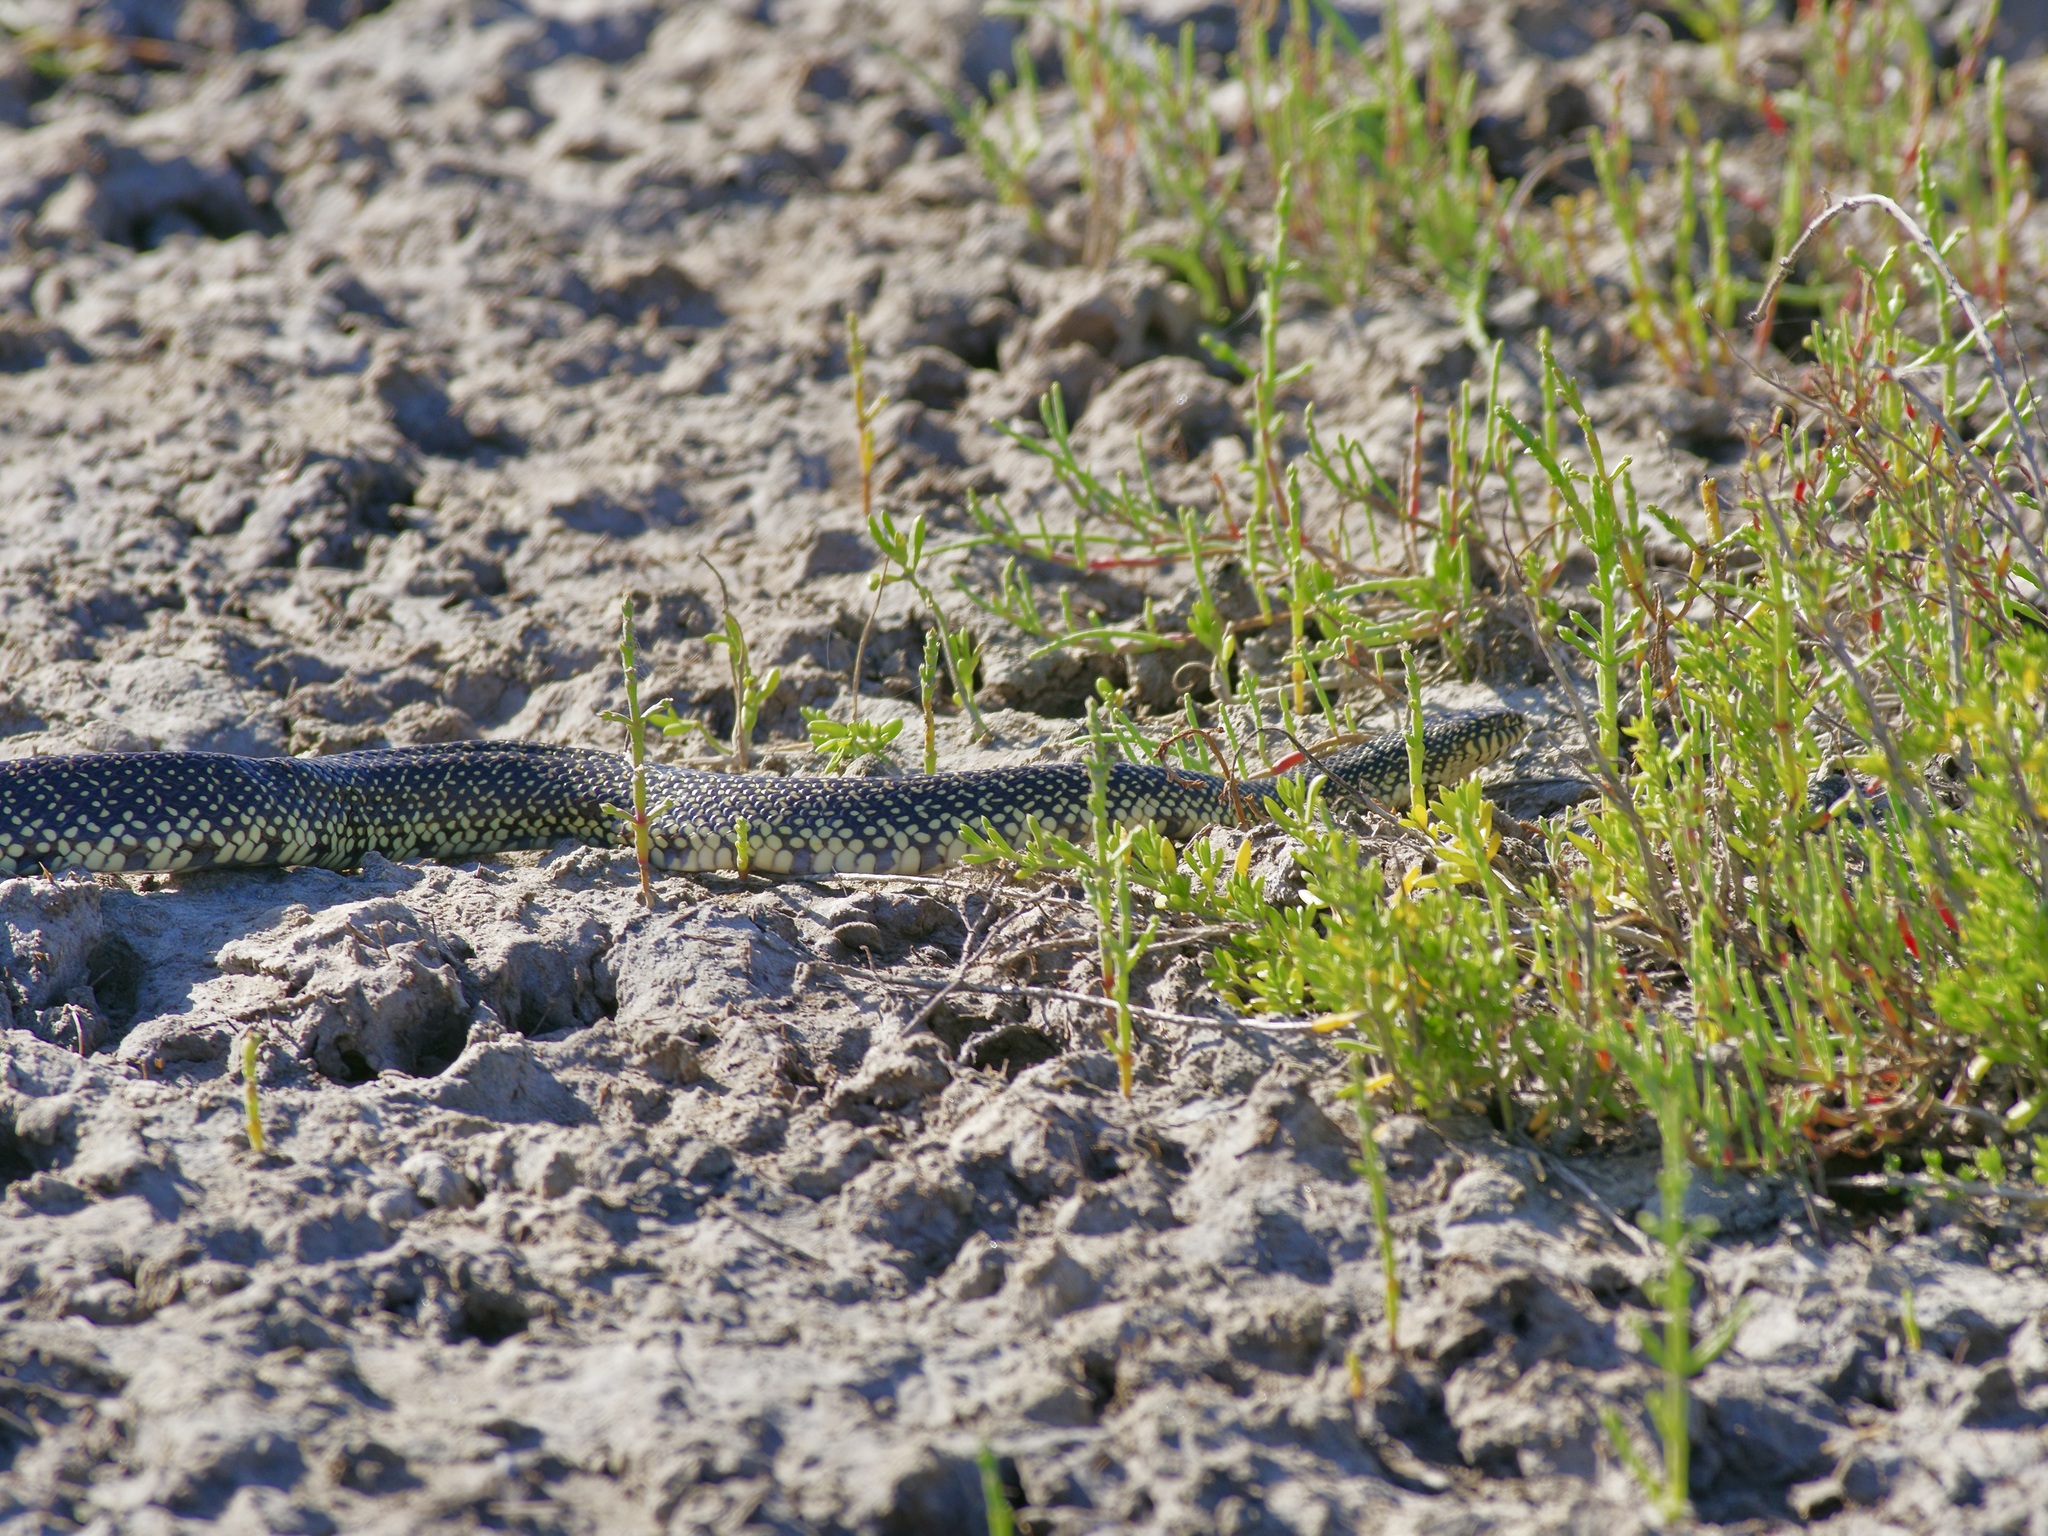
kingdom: Animalia
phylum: Chordata
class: Squamata
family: Colubridae
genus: Lampropeltis
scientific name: Lampropeltis holbrooki
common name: Speckled kingsnake
